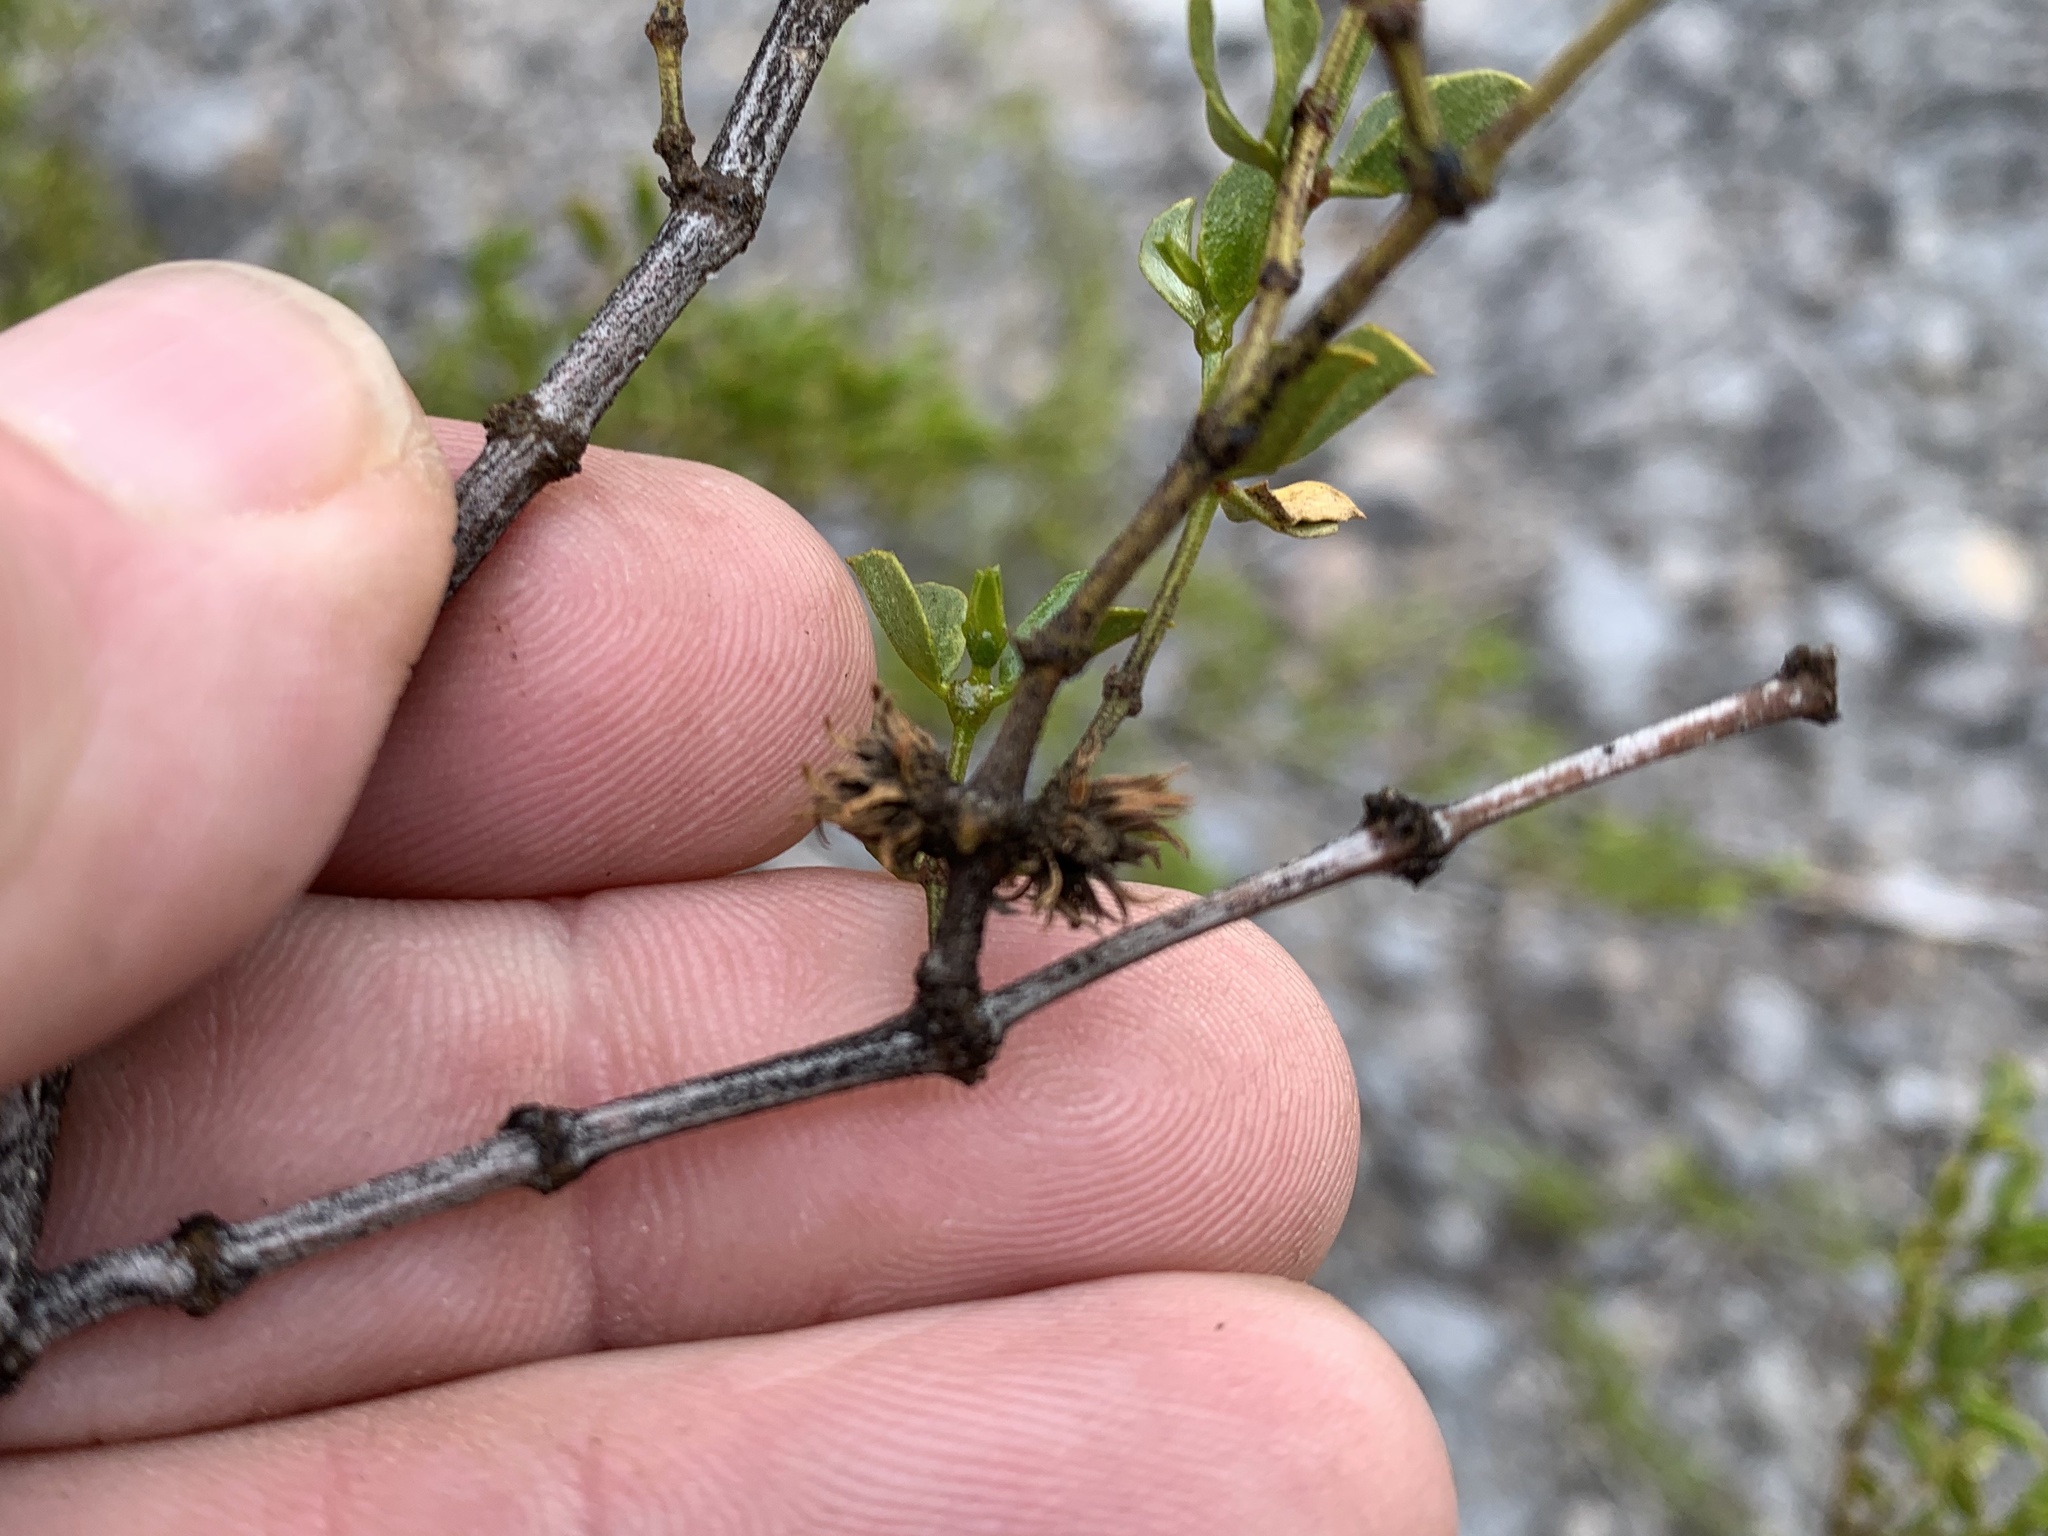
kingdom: Animalia
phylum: Arthropoda
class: Insecta
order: Diptera
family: Cecidomyiidae
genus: Asphondylia
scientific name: Asphondylia rosetta
